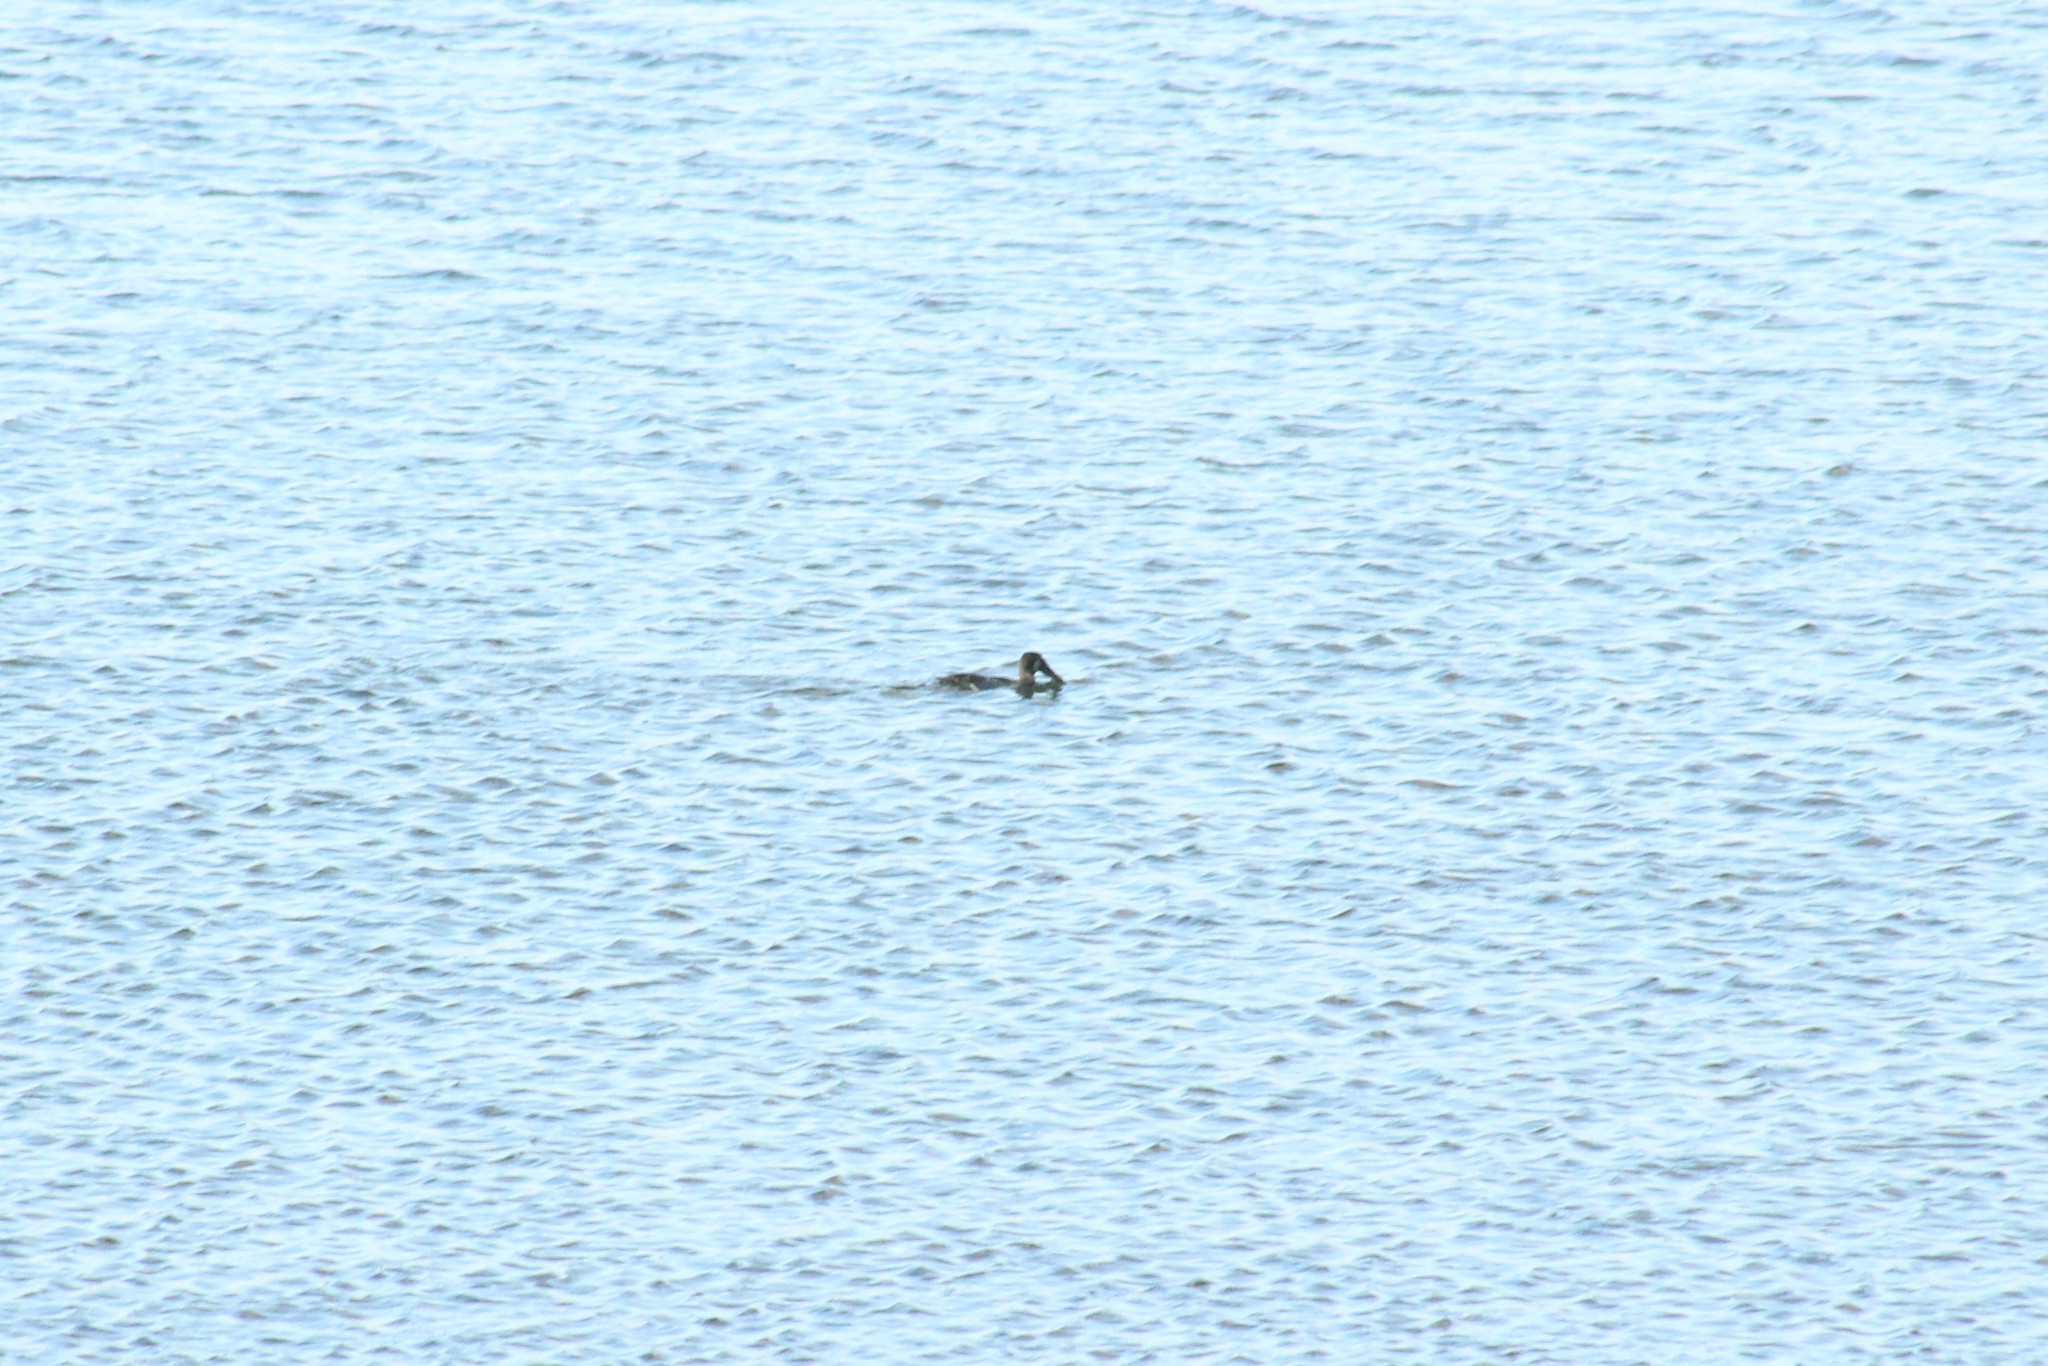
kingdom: Animalia
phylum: Chordata
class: Aves
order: Anseriformes
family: Anatidae
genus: Spatula
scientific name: Spatula clypeata
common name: Northern shoveler
